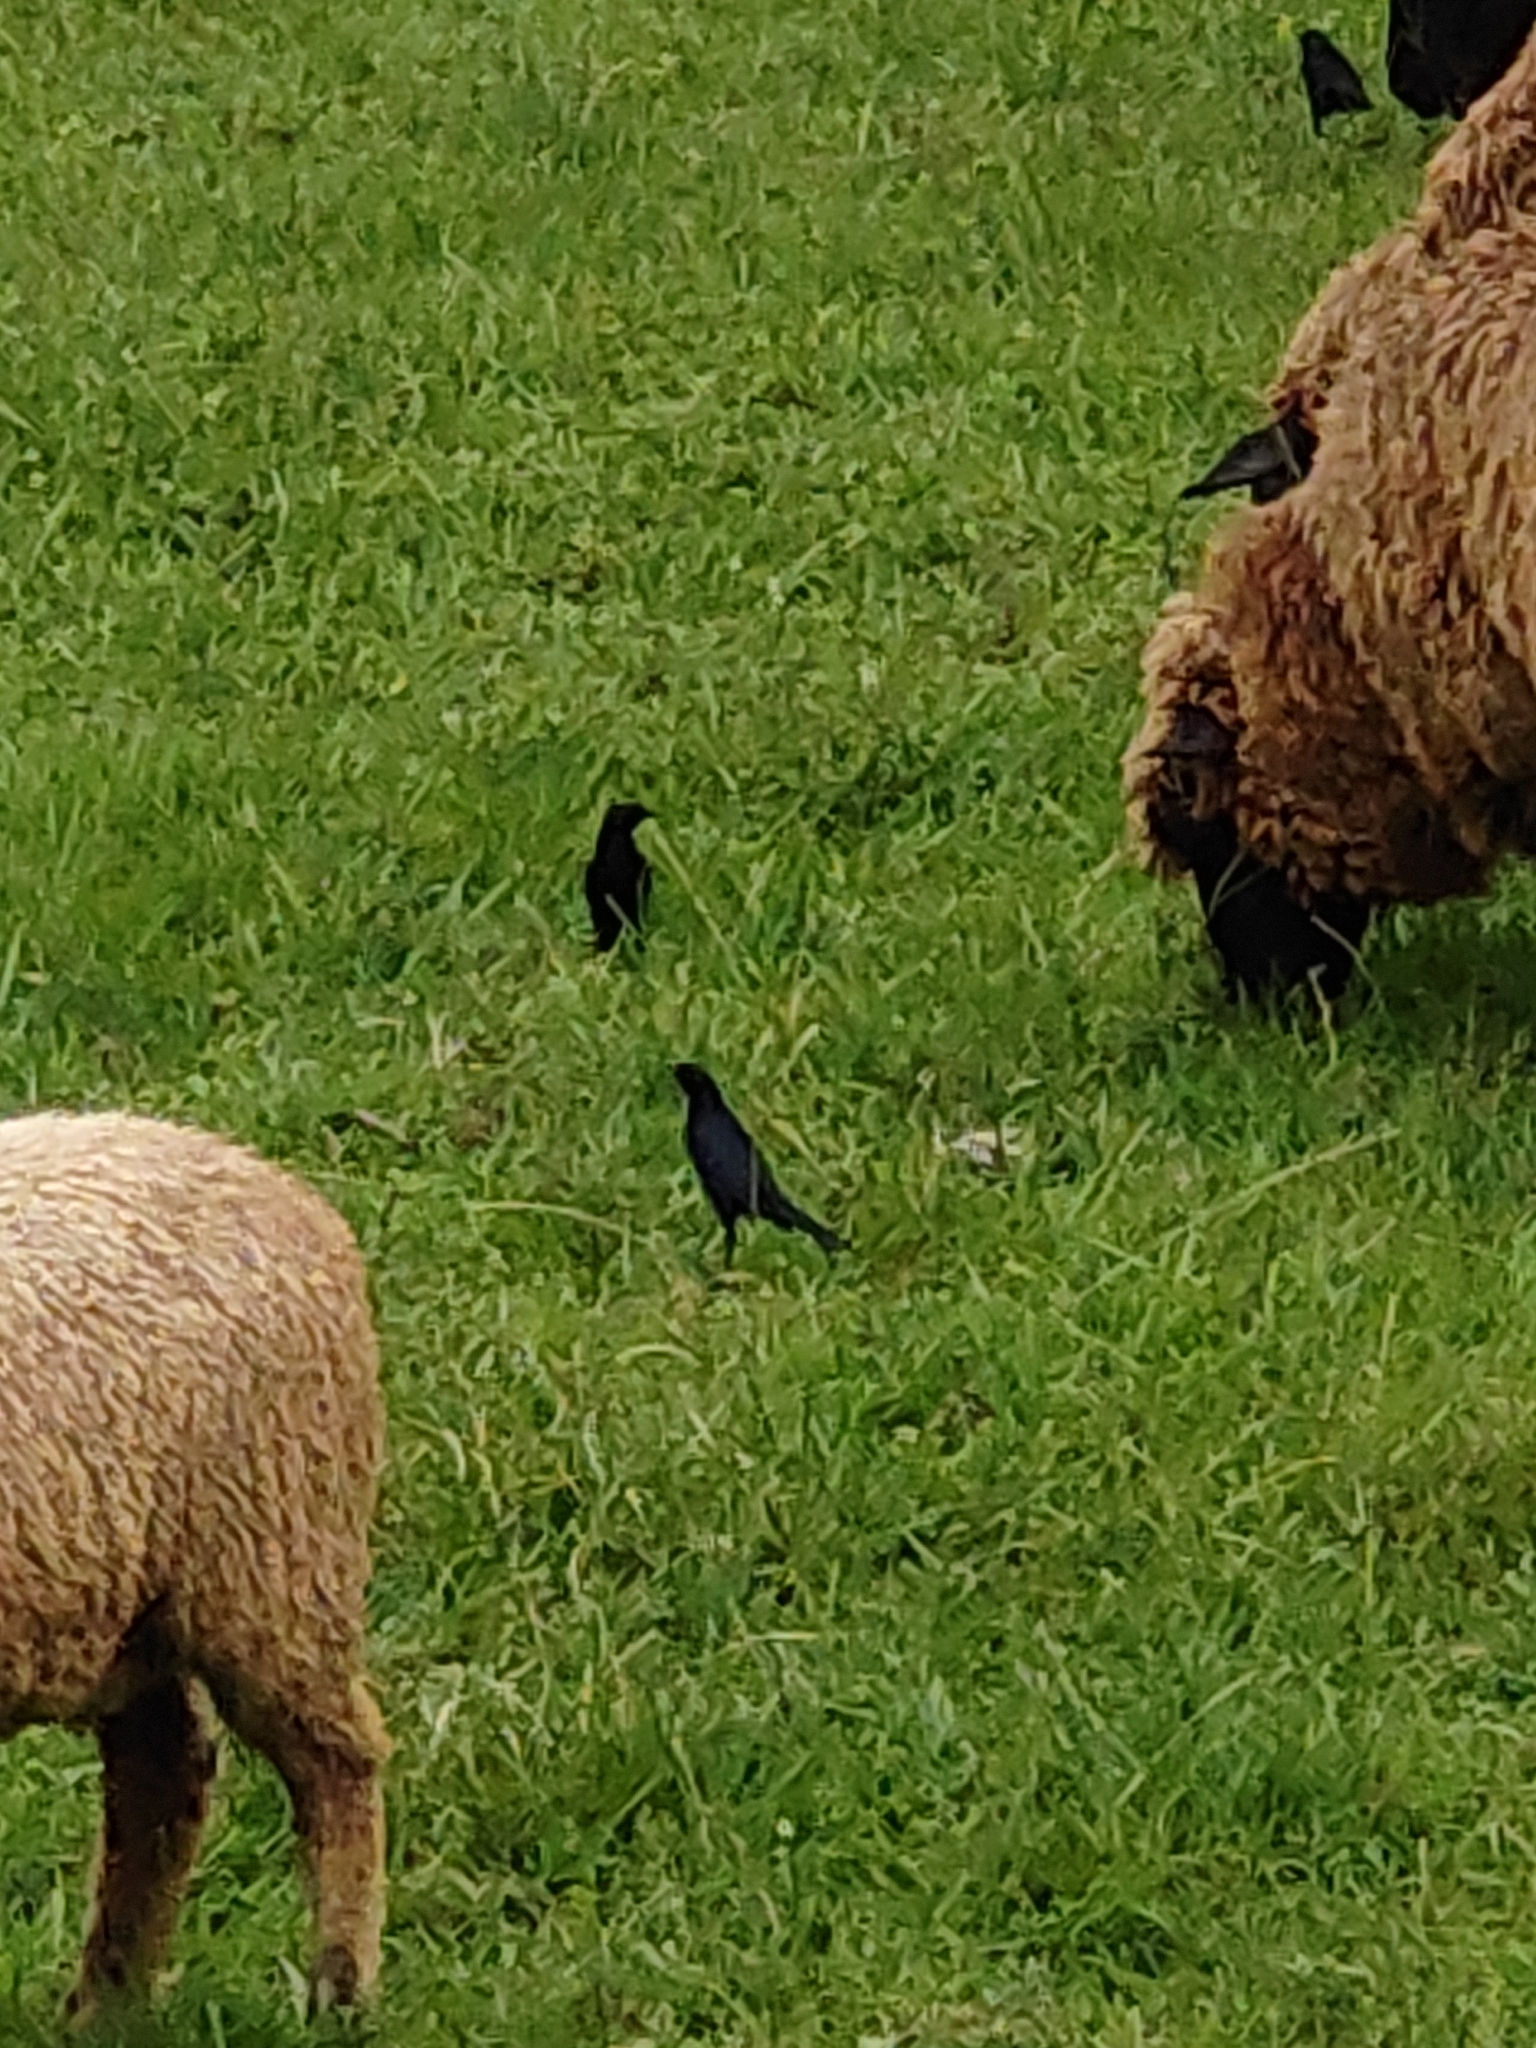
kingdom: Animalia
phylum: Chordata
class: Aves
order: Passeriformes
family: Icteridae
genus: Molothrus
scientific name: Molothrus bonariensis
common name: Shiny cowbird
